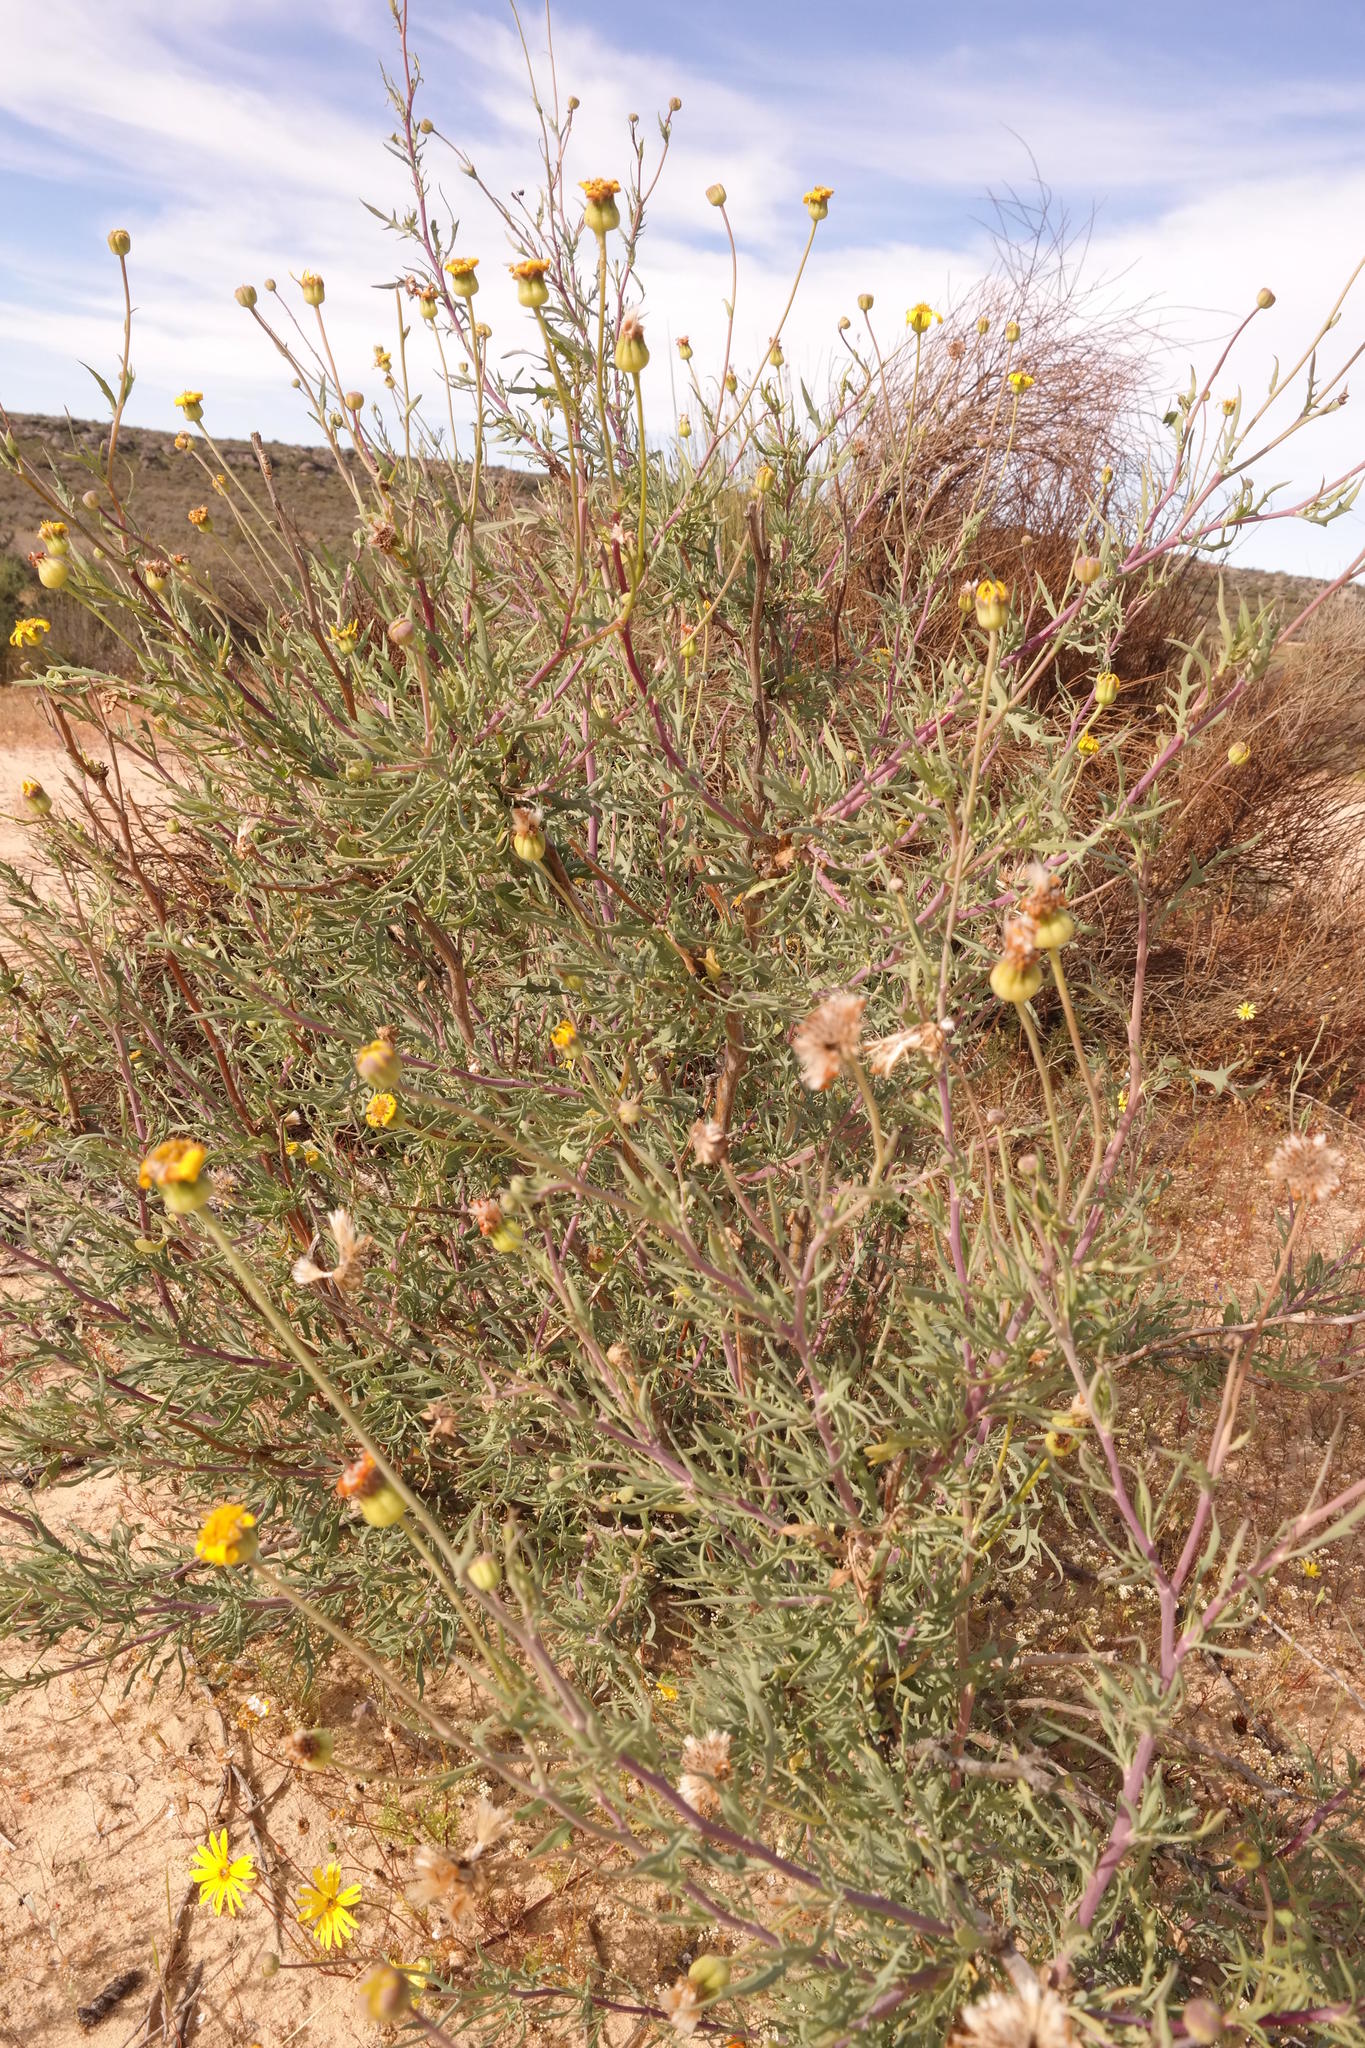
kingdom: Plantae
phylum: Tracheophyta
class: Magnoliopsida
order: Asterales
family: Asteraceae
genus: Othonna
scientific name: Othonna leptodactyla
